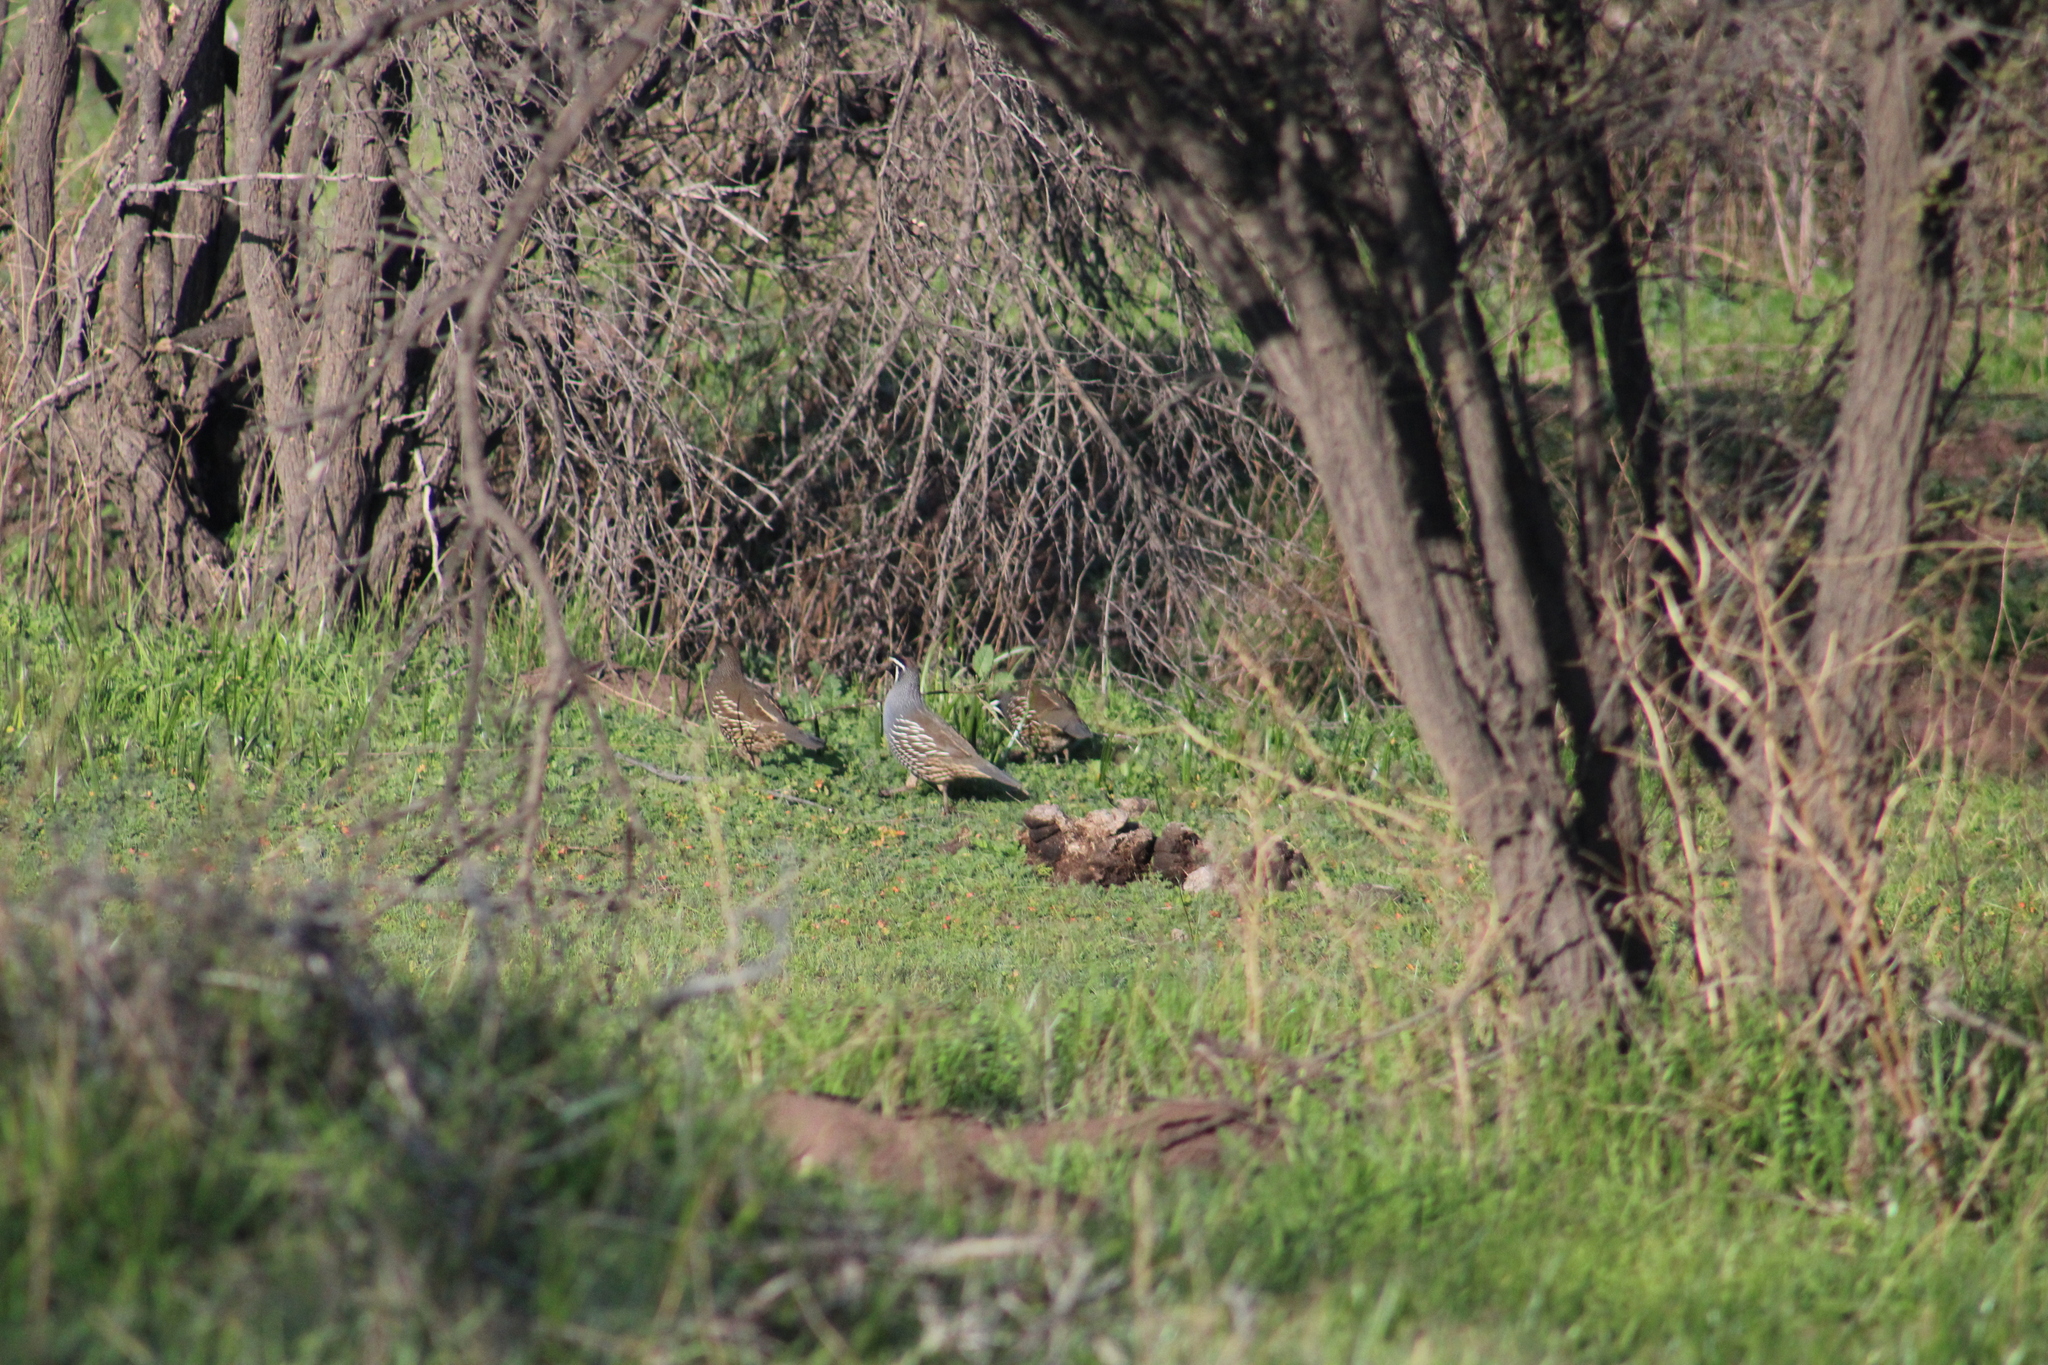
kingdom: Animalia
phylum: Chordata
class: Aves
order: Galliformes
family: Odontophoridae
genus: Callipepla
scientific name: Callipepla californica
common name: California quail
